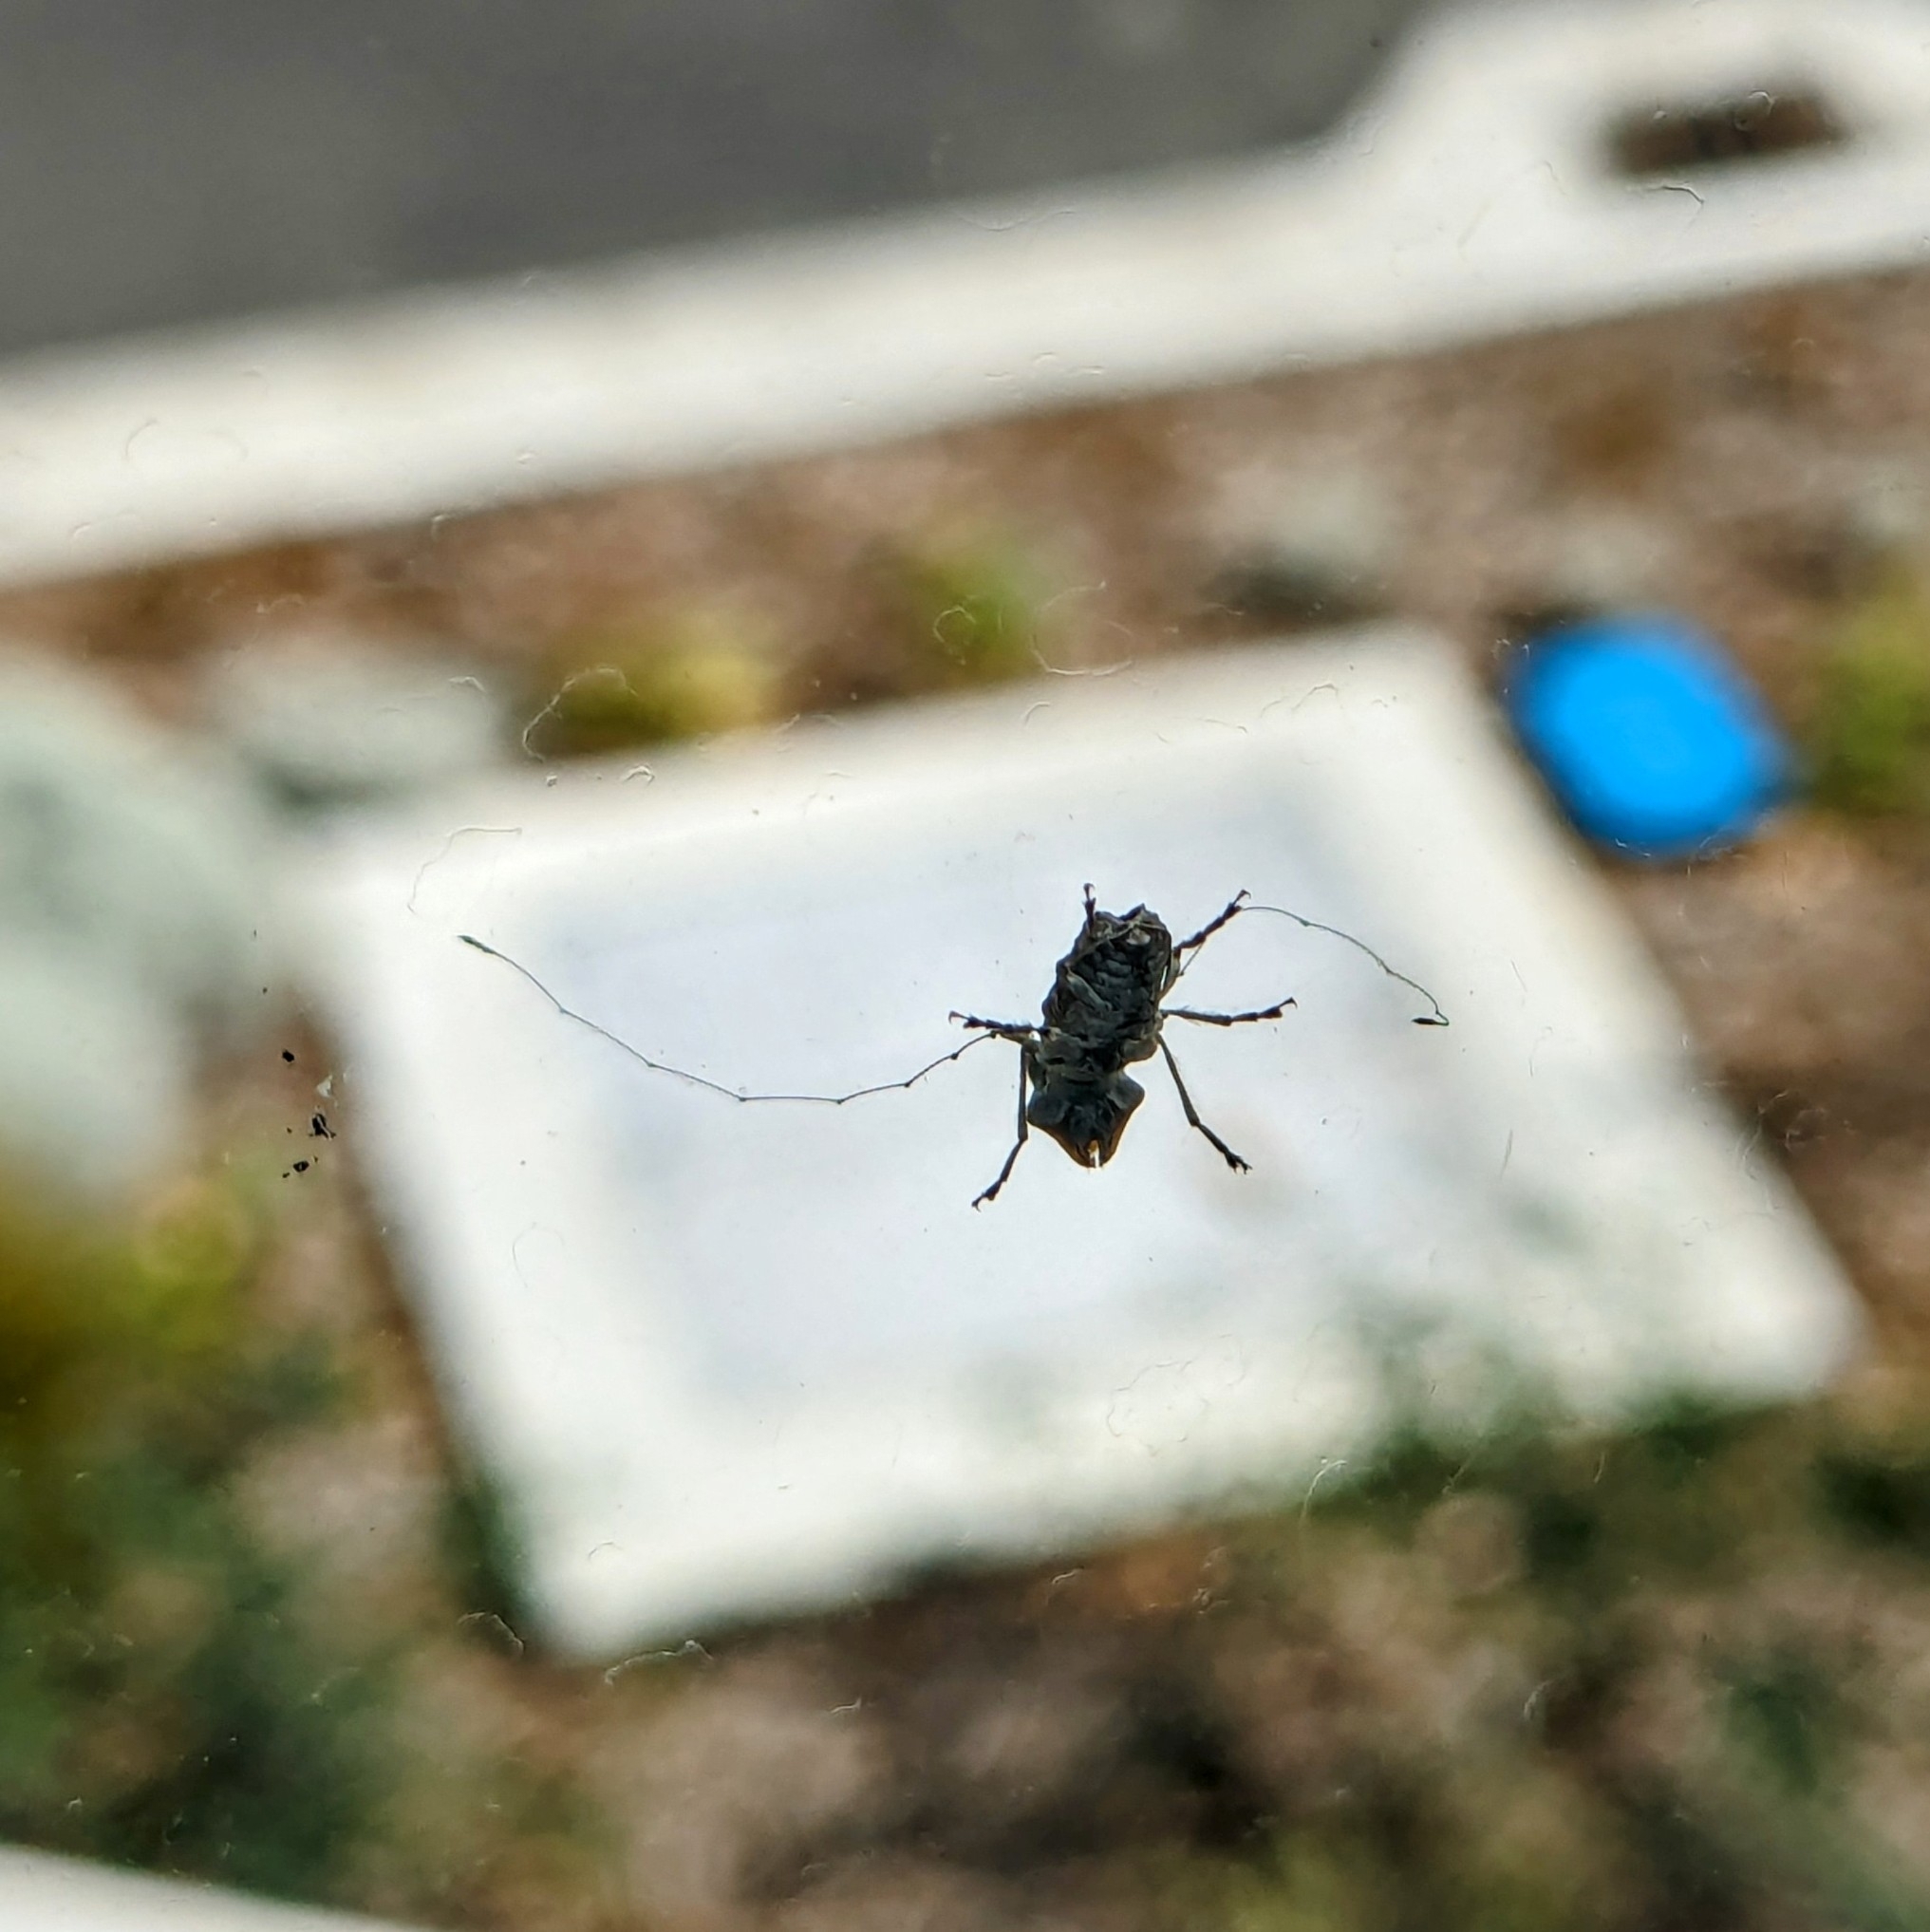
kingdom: Animalia
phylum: Arthropoda
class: Insecta
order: Coleoptera
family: Anthribidae
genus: Hoherius
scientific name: Hoherius
